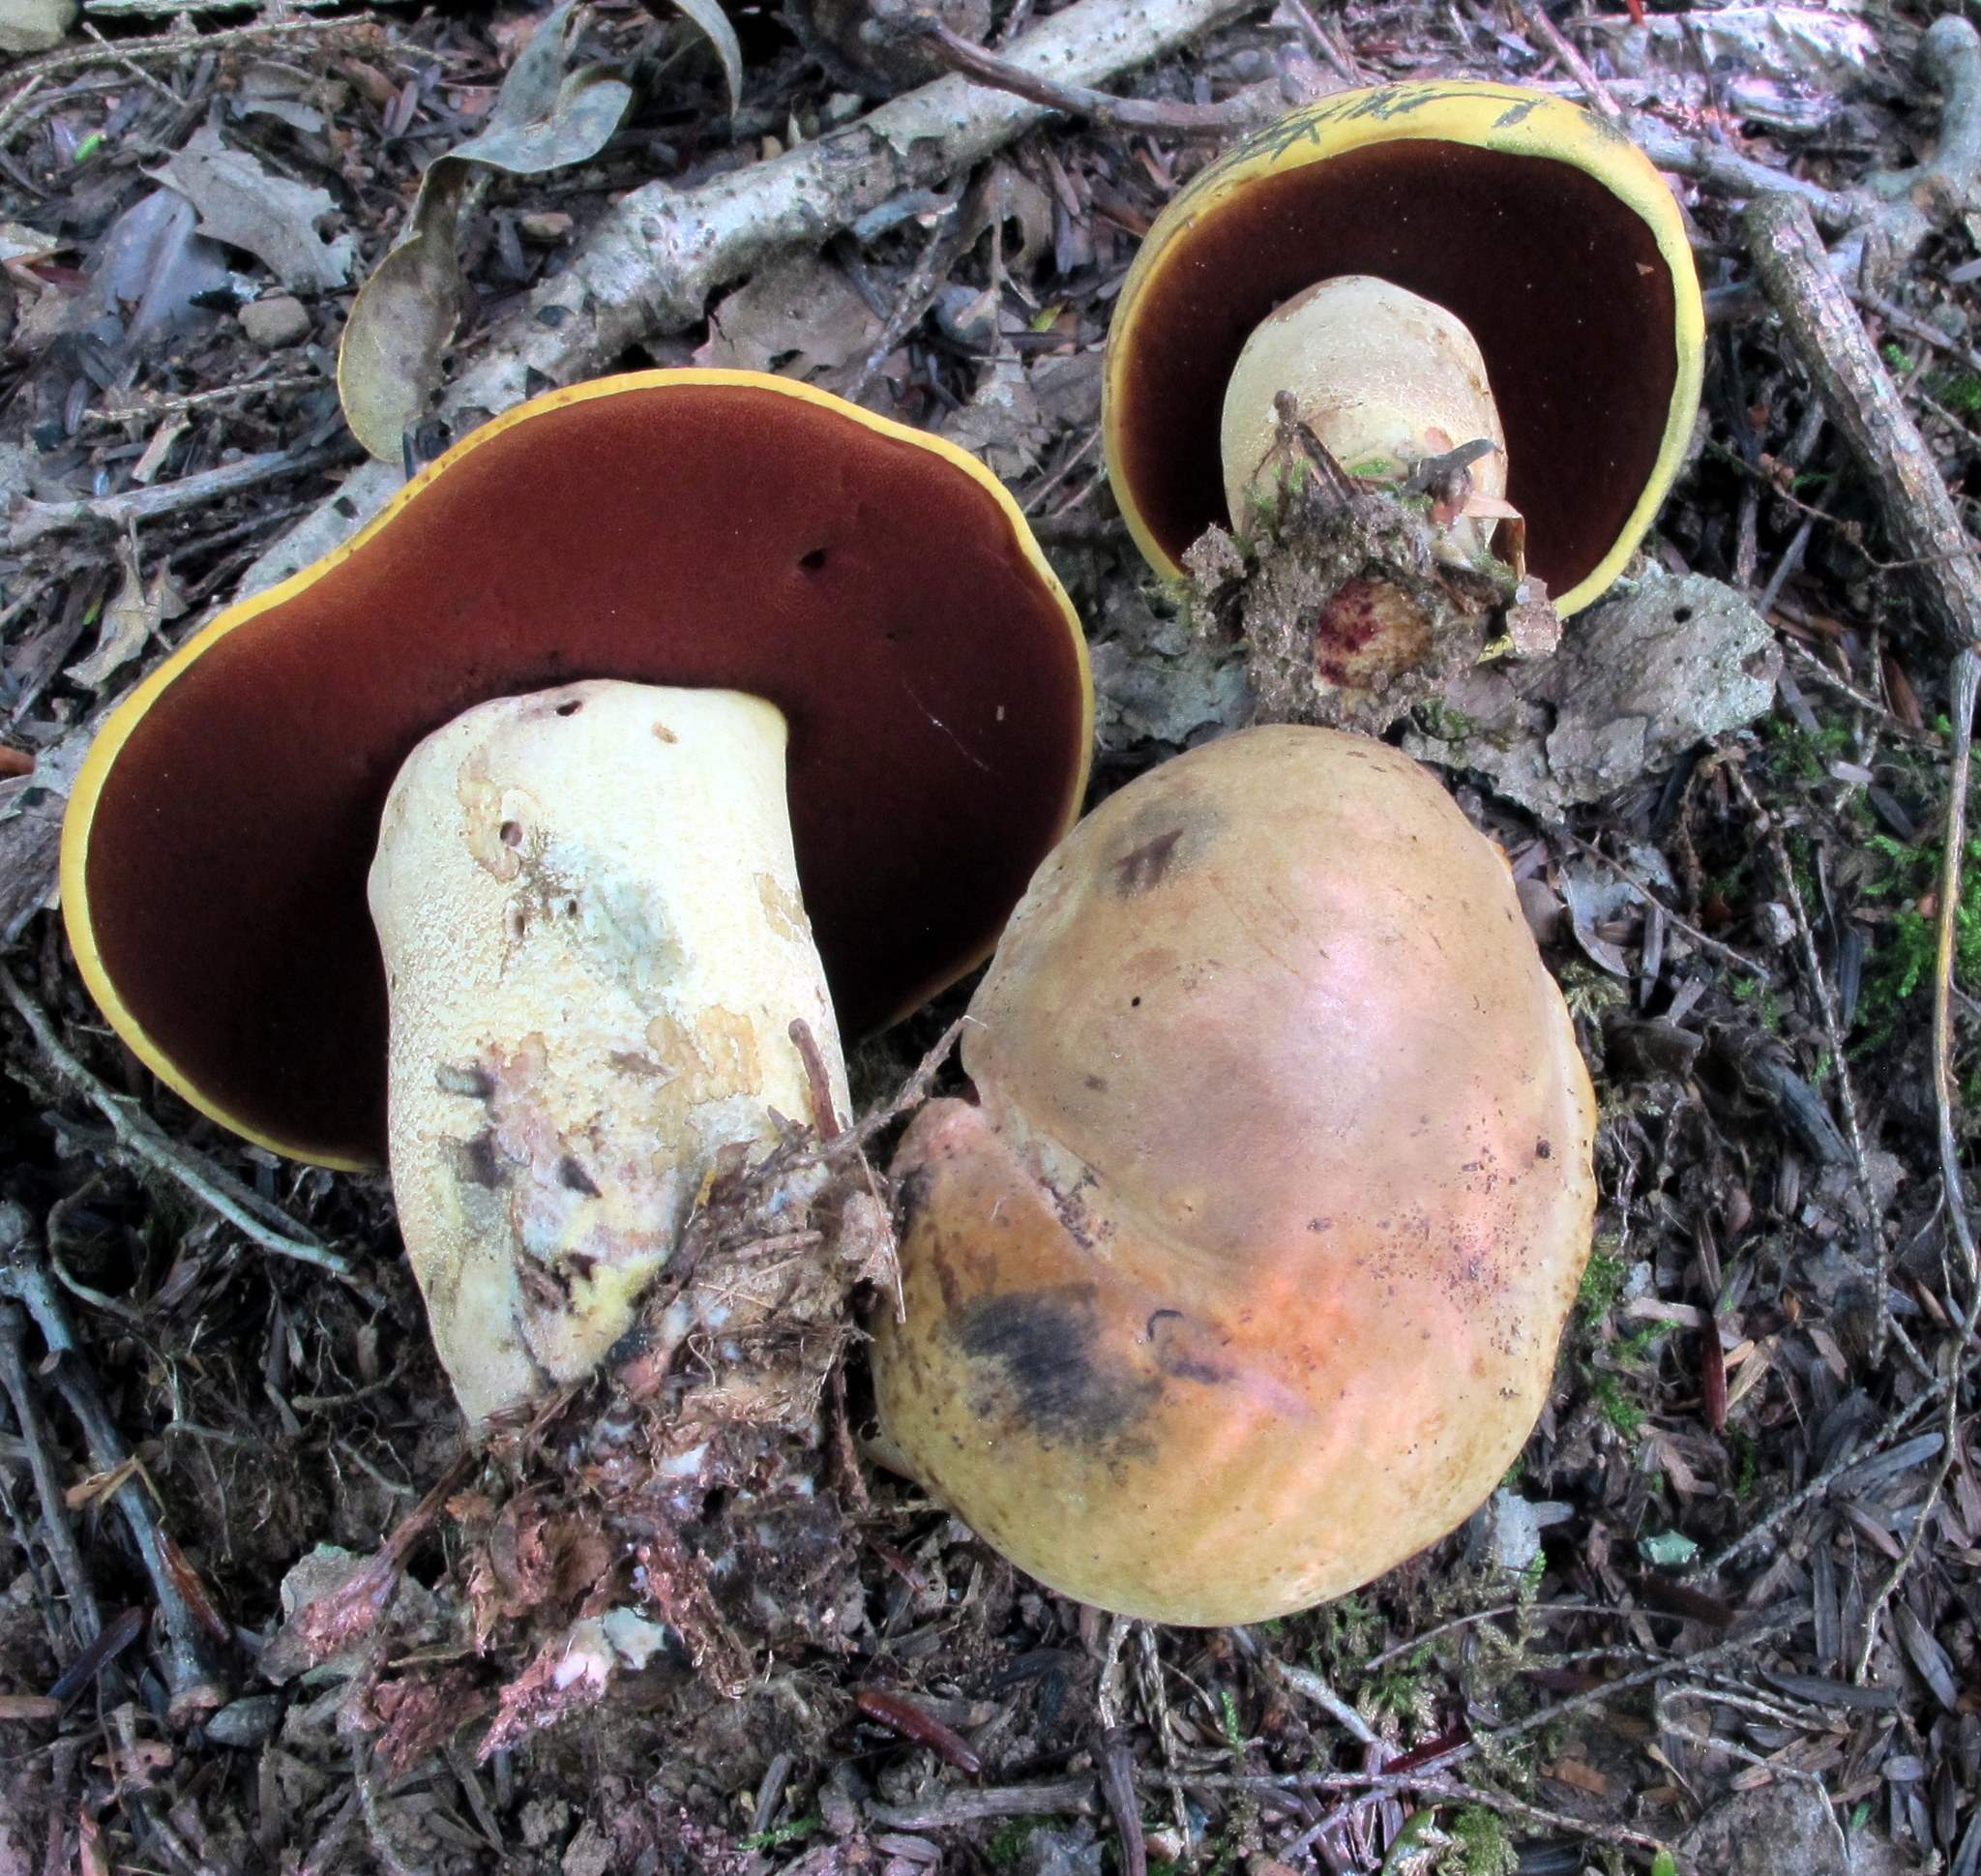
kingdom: Fungi
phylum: Basidiomycota
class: Agaricomycetes
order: Boletales
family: Boletaceae
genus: Boletus
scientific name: Boletus vermiculosoides
